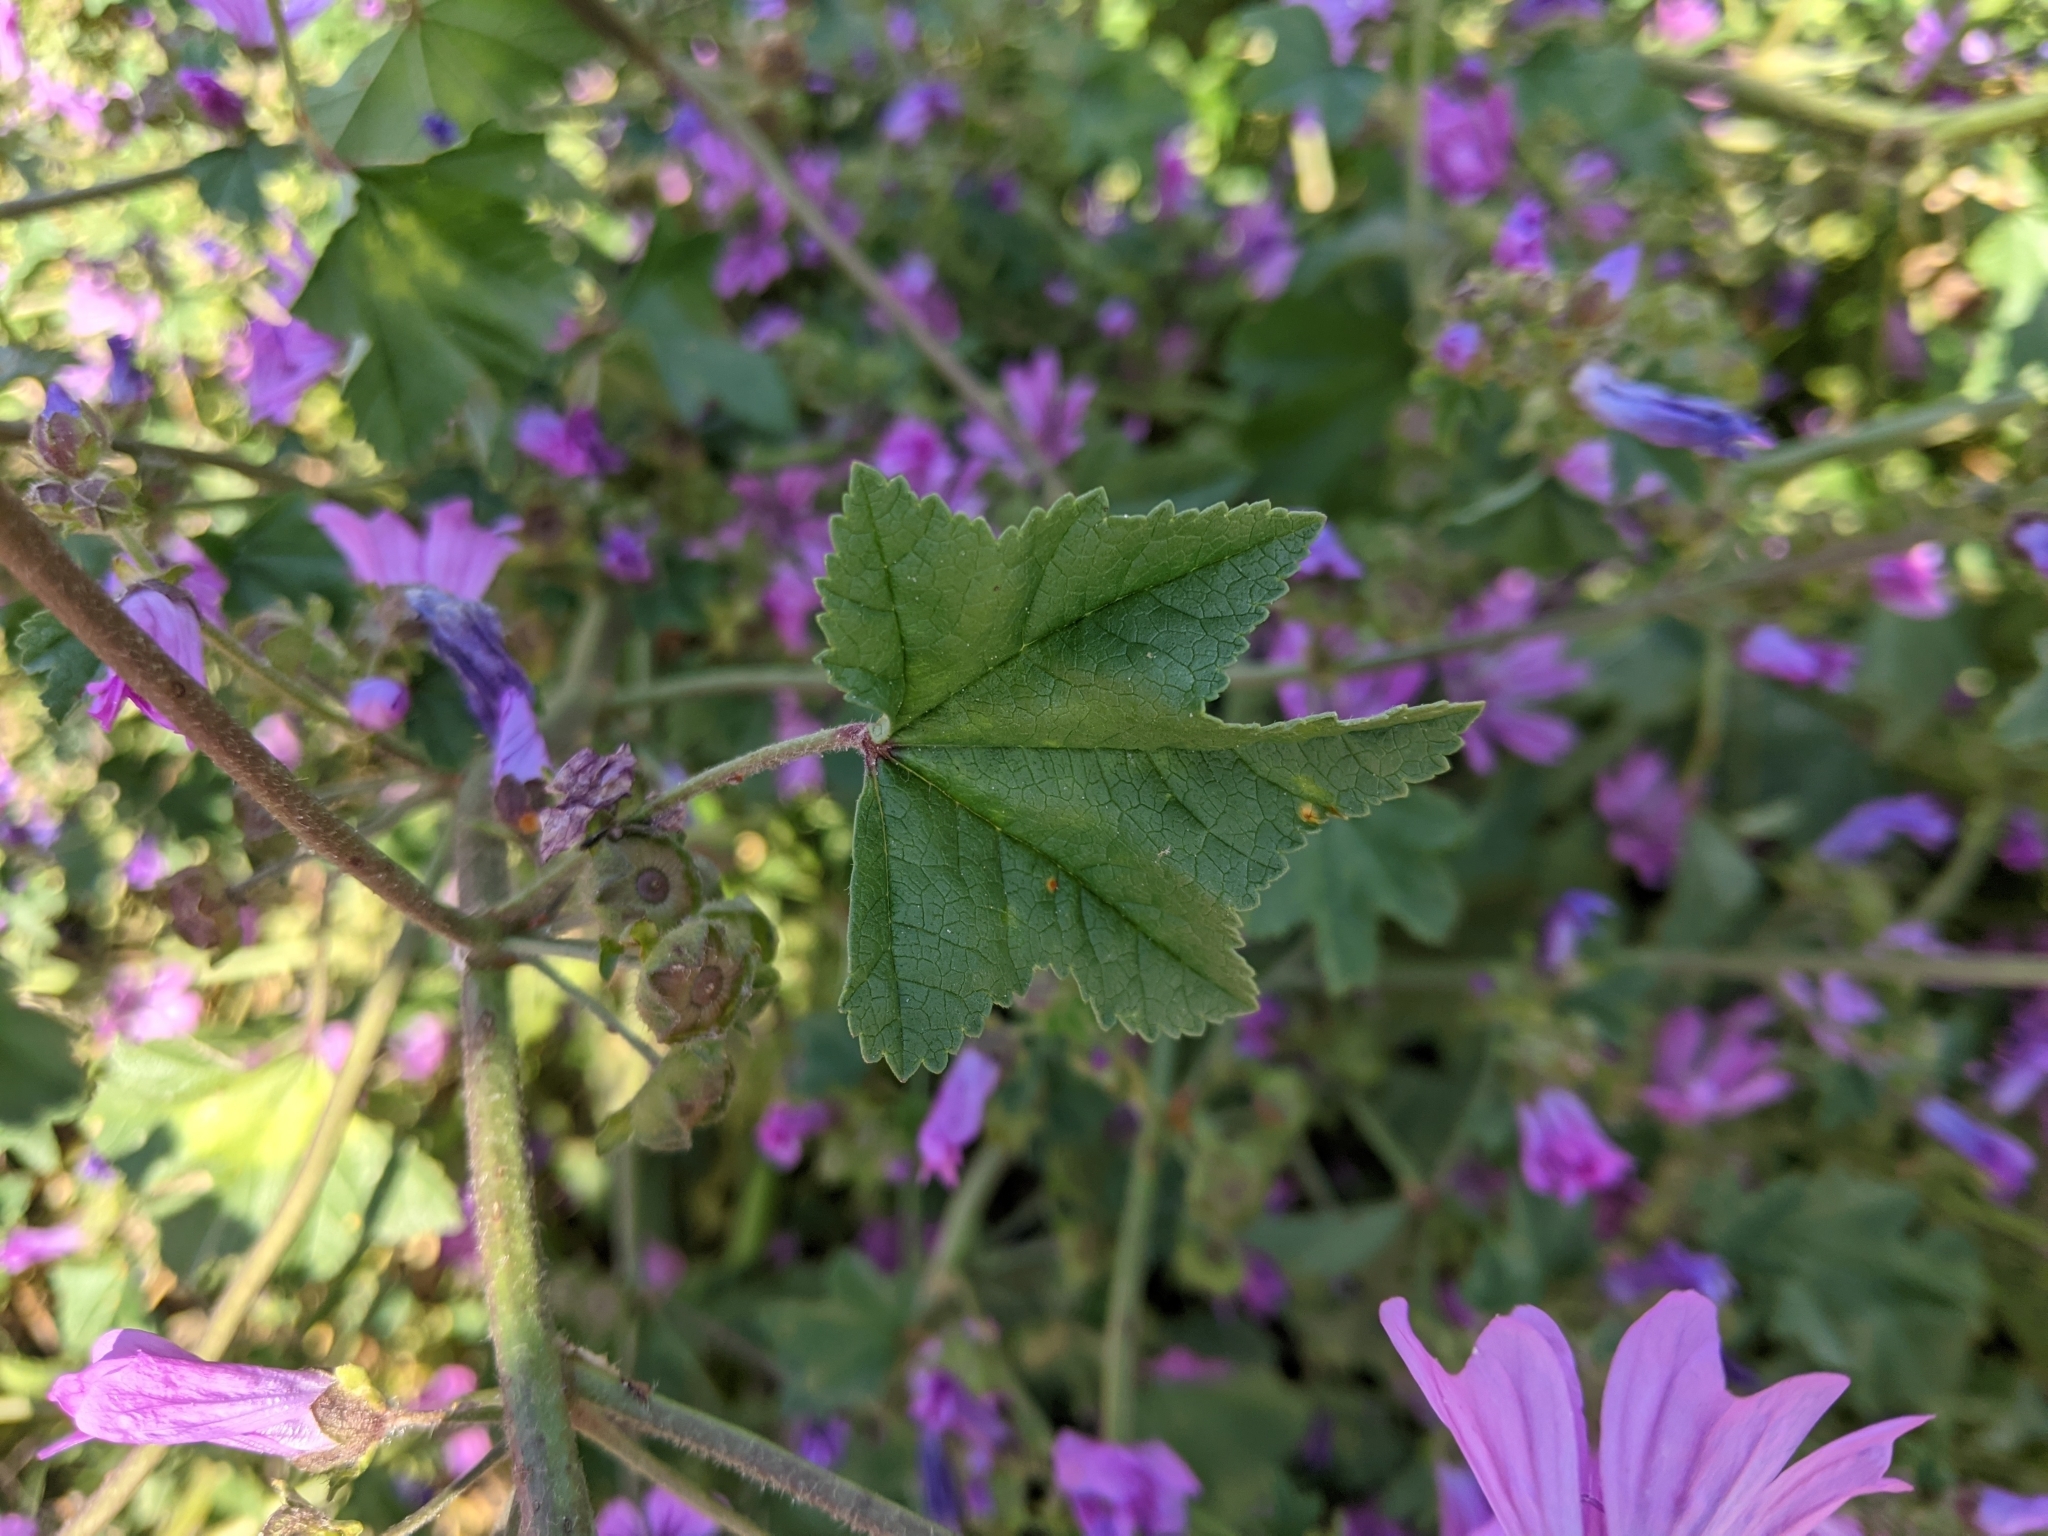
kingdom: Plantae
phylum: Tracheophyta
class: Magnoliopsida
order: Malvales
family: Malvaceae
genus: Malva
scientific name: Malva sylvestris
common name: Common mallow
